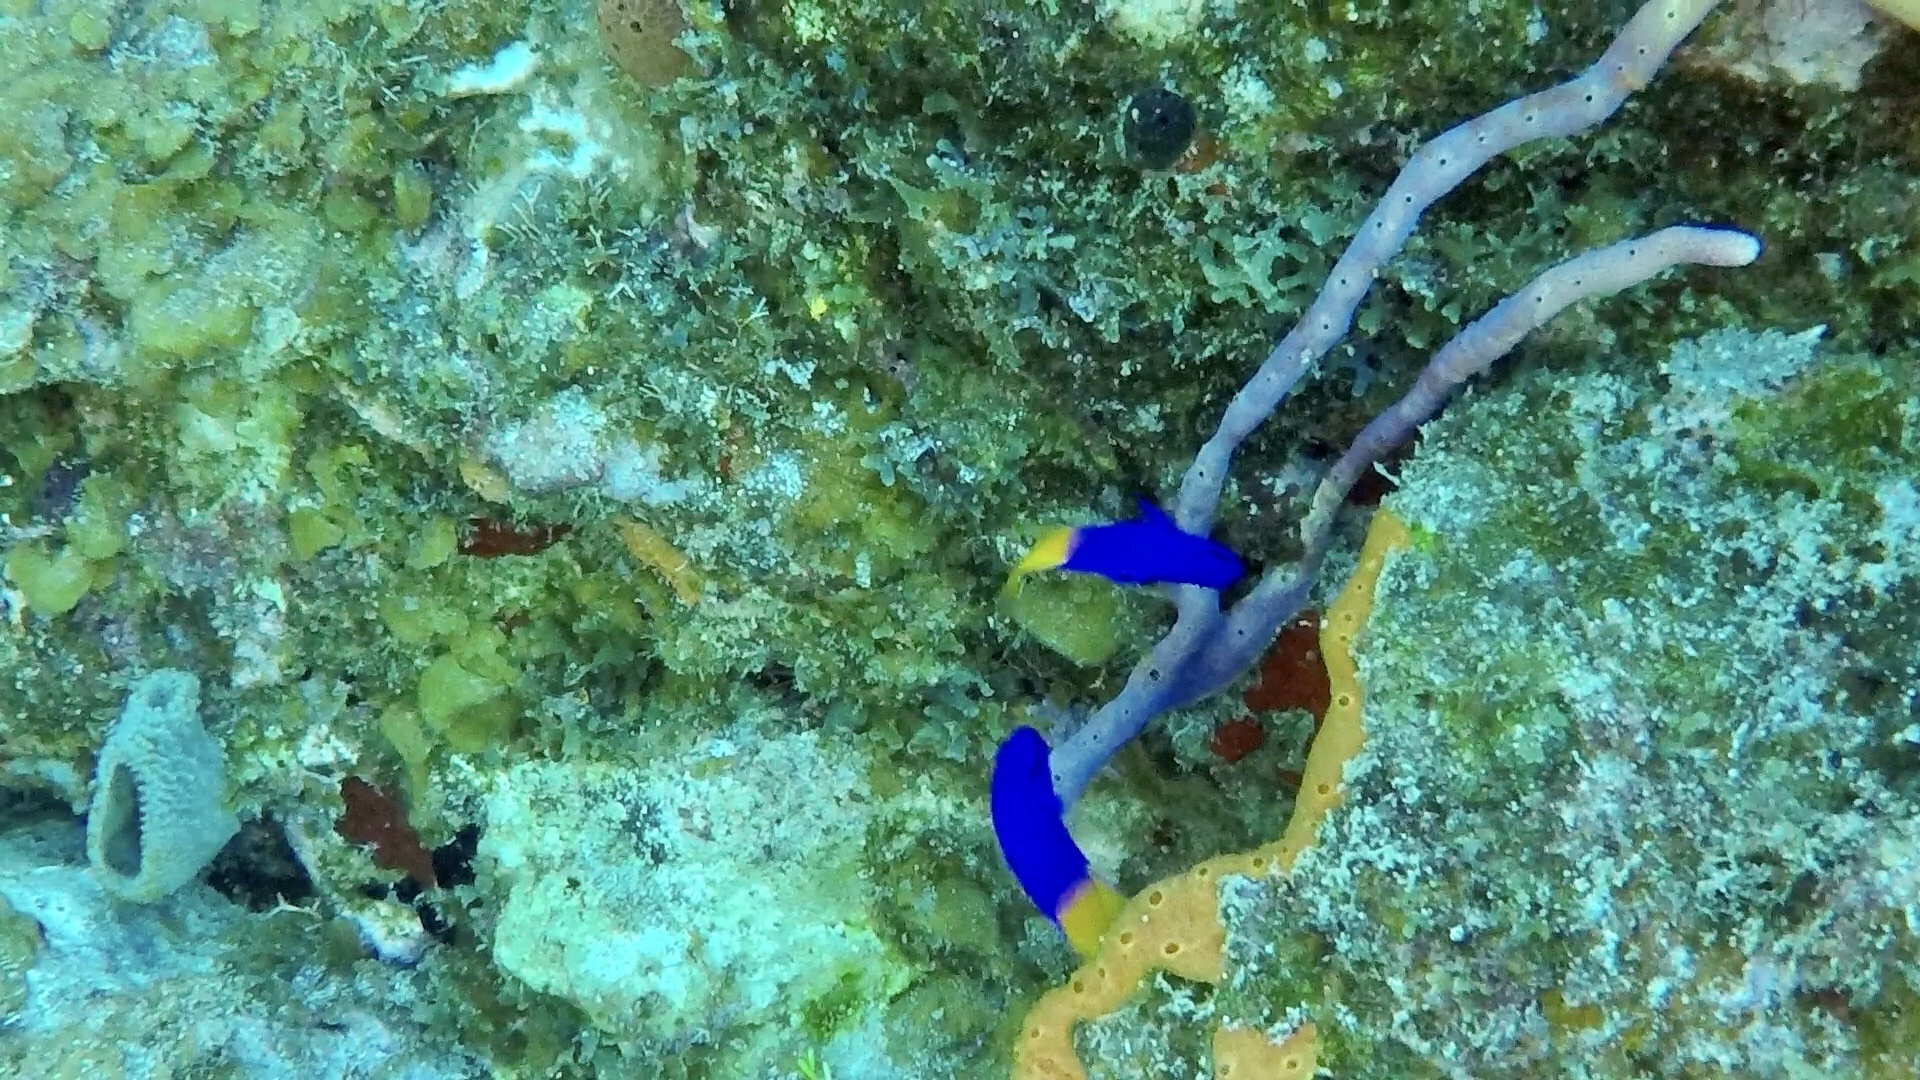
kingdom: Animalia
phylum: Chordata
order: Perciformes
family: Grammatidae
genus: Gramma
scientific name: Gramma loreto
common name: Fairy basslet
